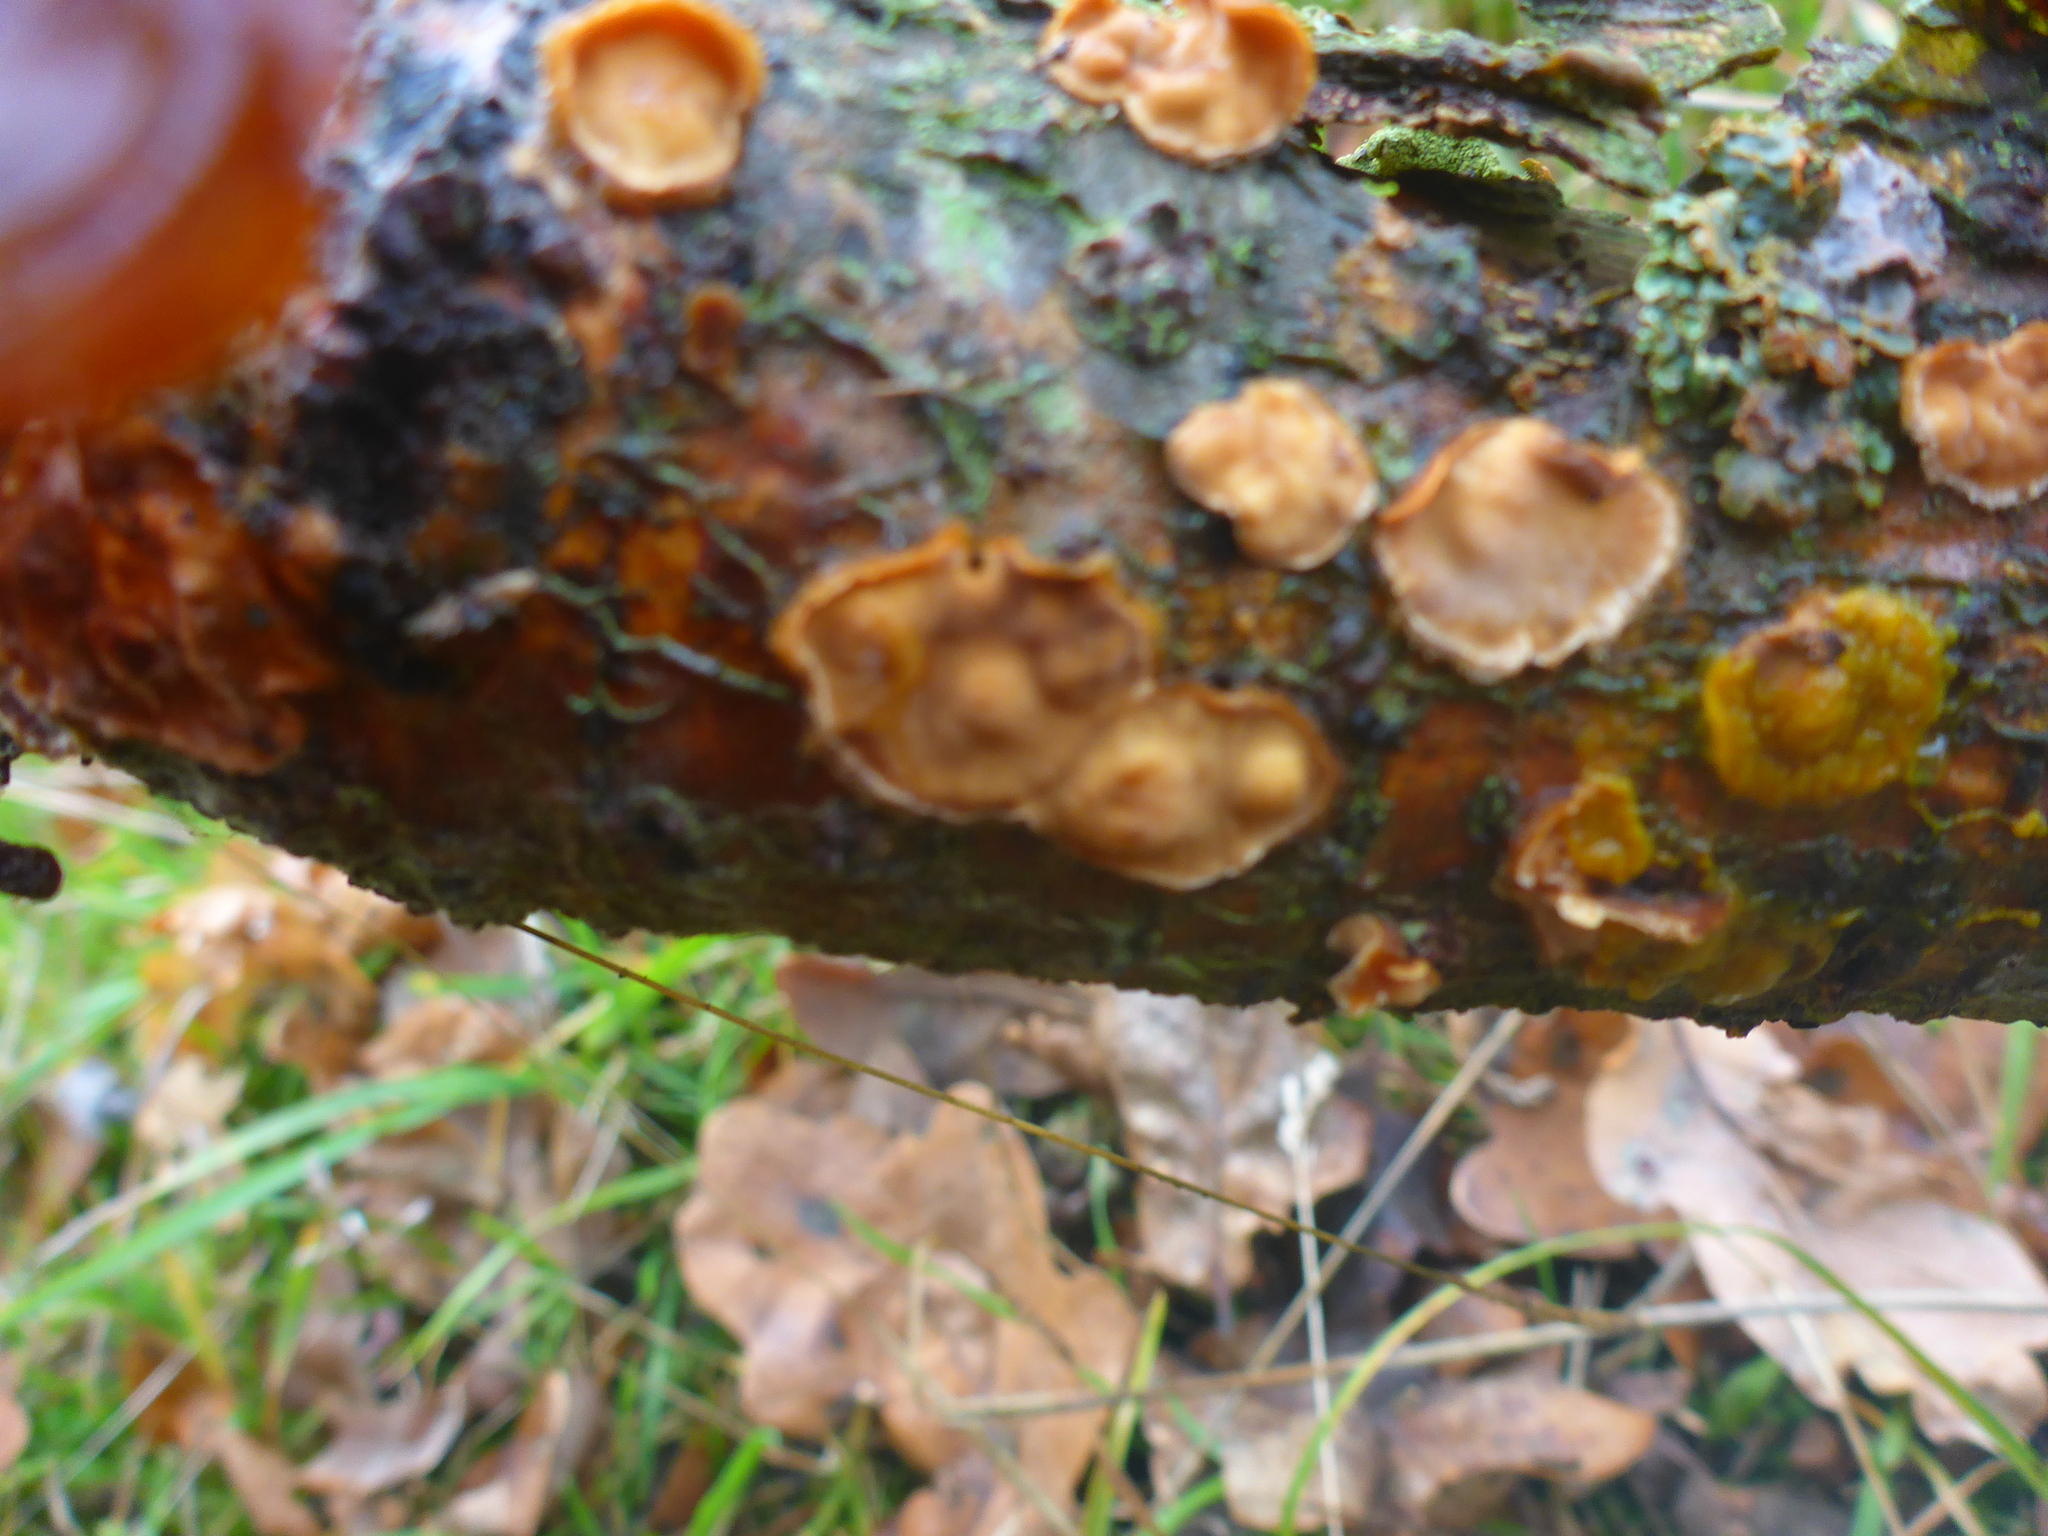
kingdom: Fungi
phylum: Basidiomycota
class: Agaricomycetes
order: Russulales
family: Stereaceae
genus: Stereum
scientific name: Stereum complicatum
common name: Crowded parchment
